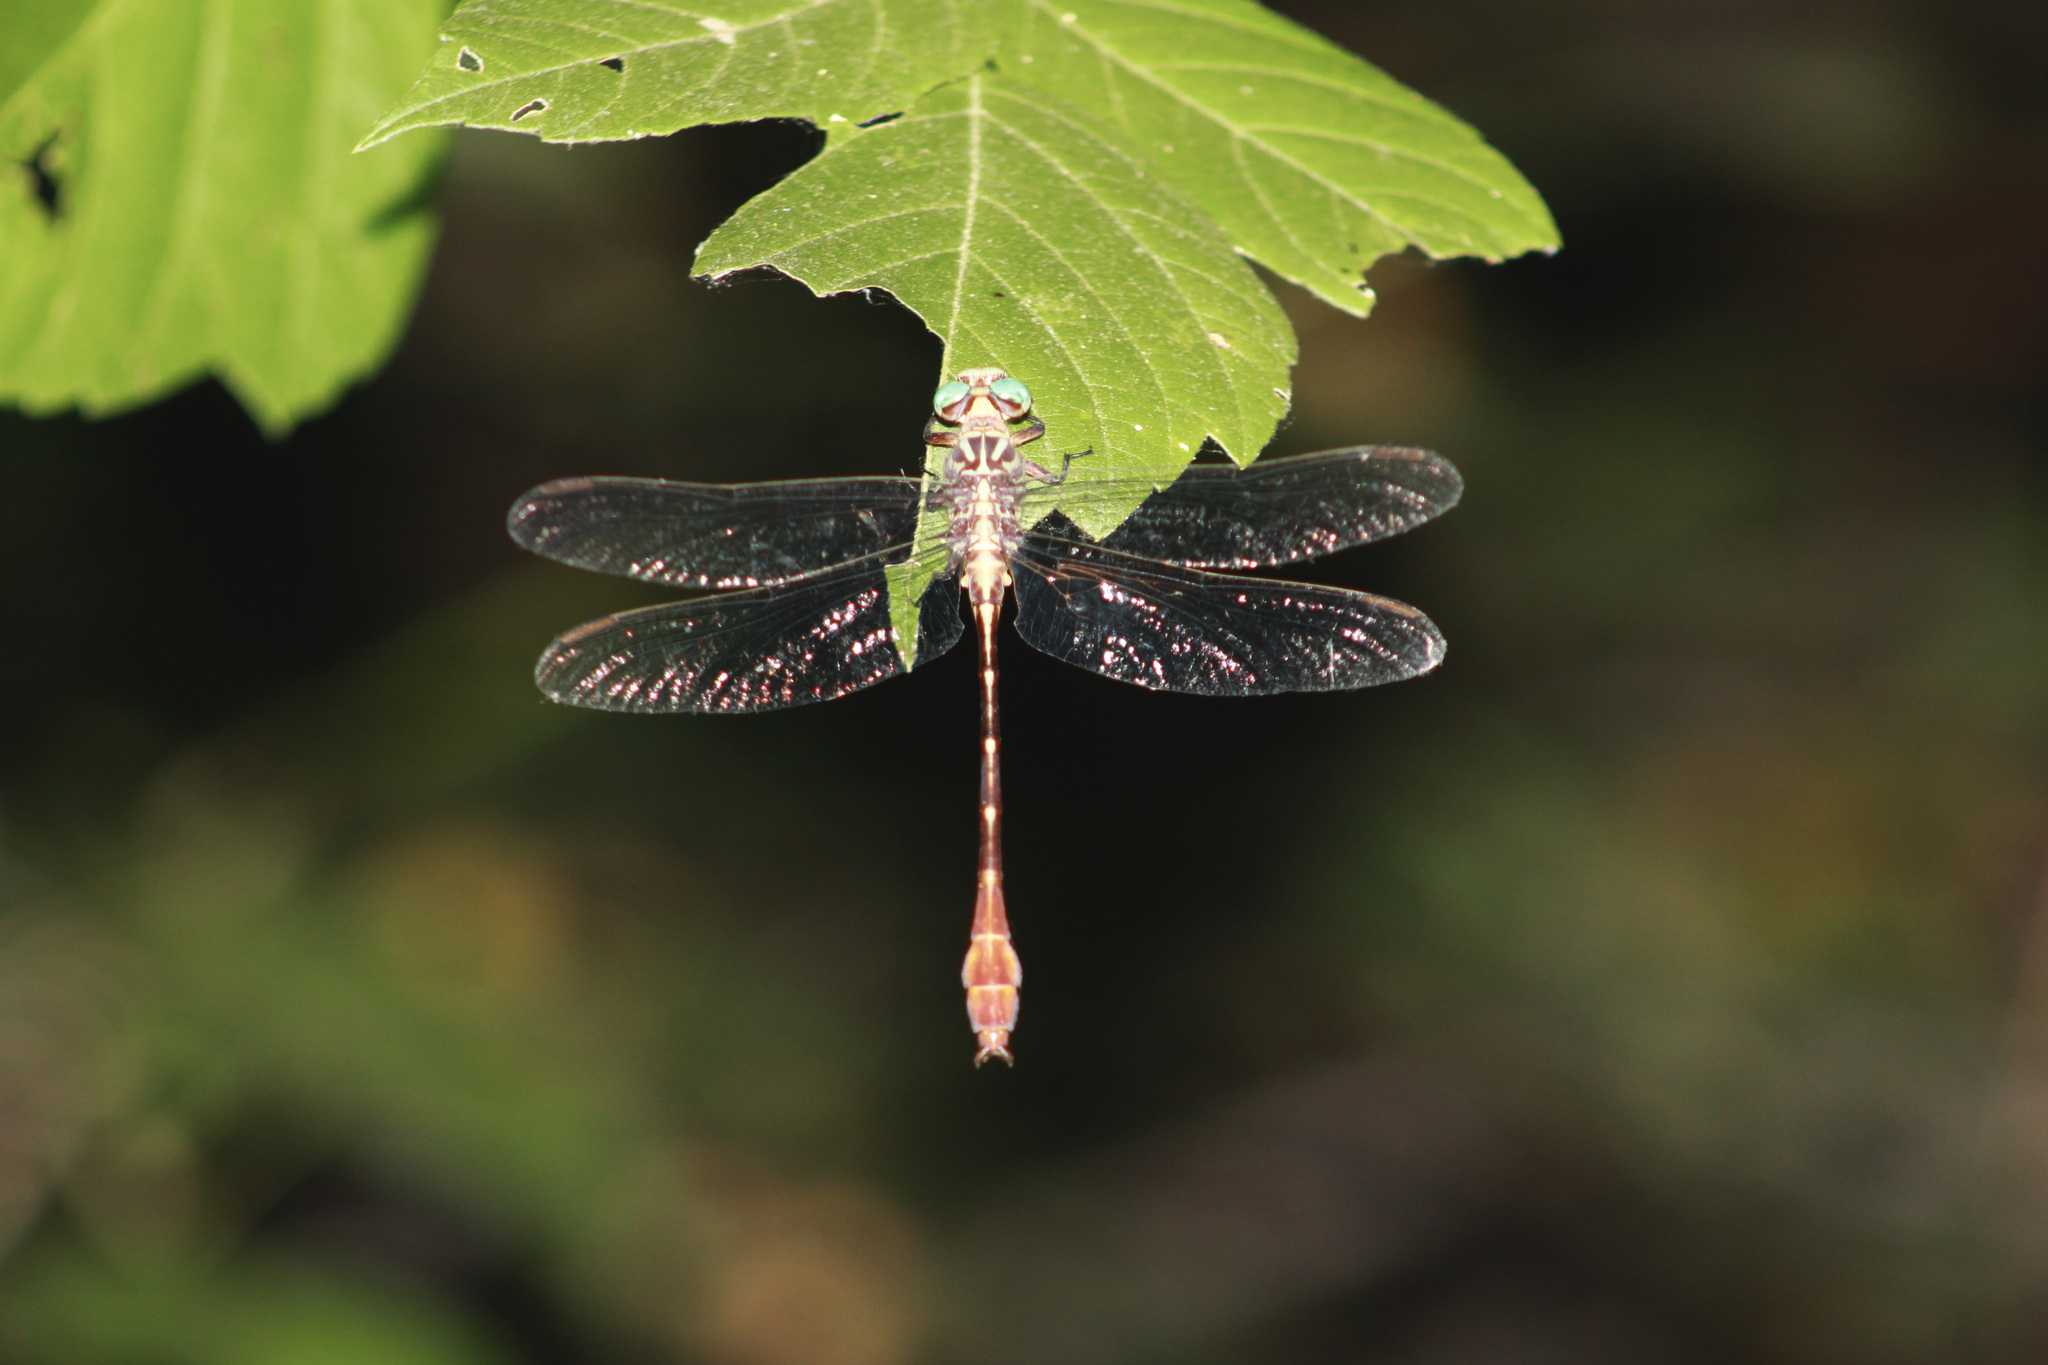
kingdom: Animalia
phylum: Arthropoda
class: Insecta
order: Odonata
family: Gomphidae
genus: Stylurus
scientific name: Stylurus plagiatus
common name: Russet-tipped clubtail
